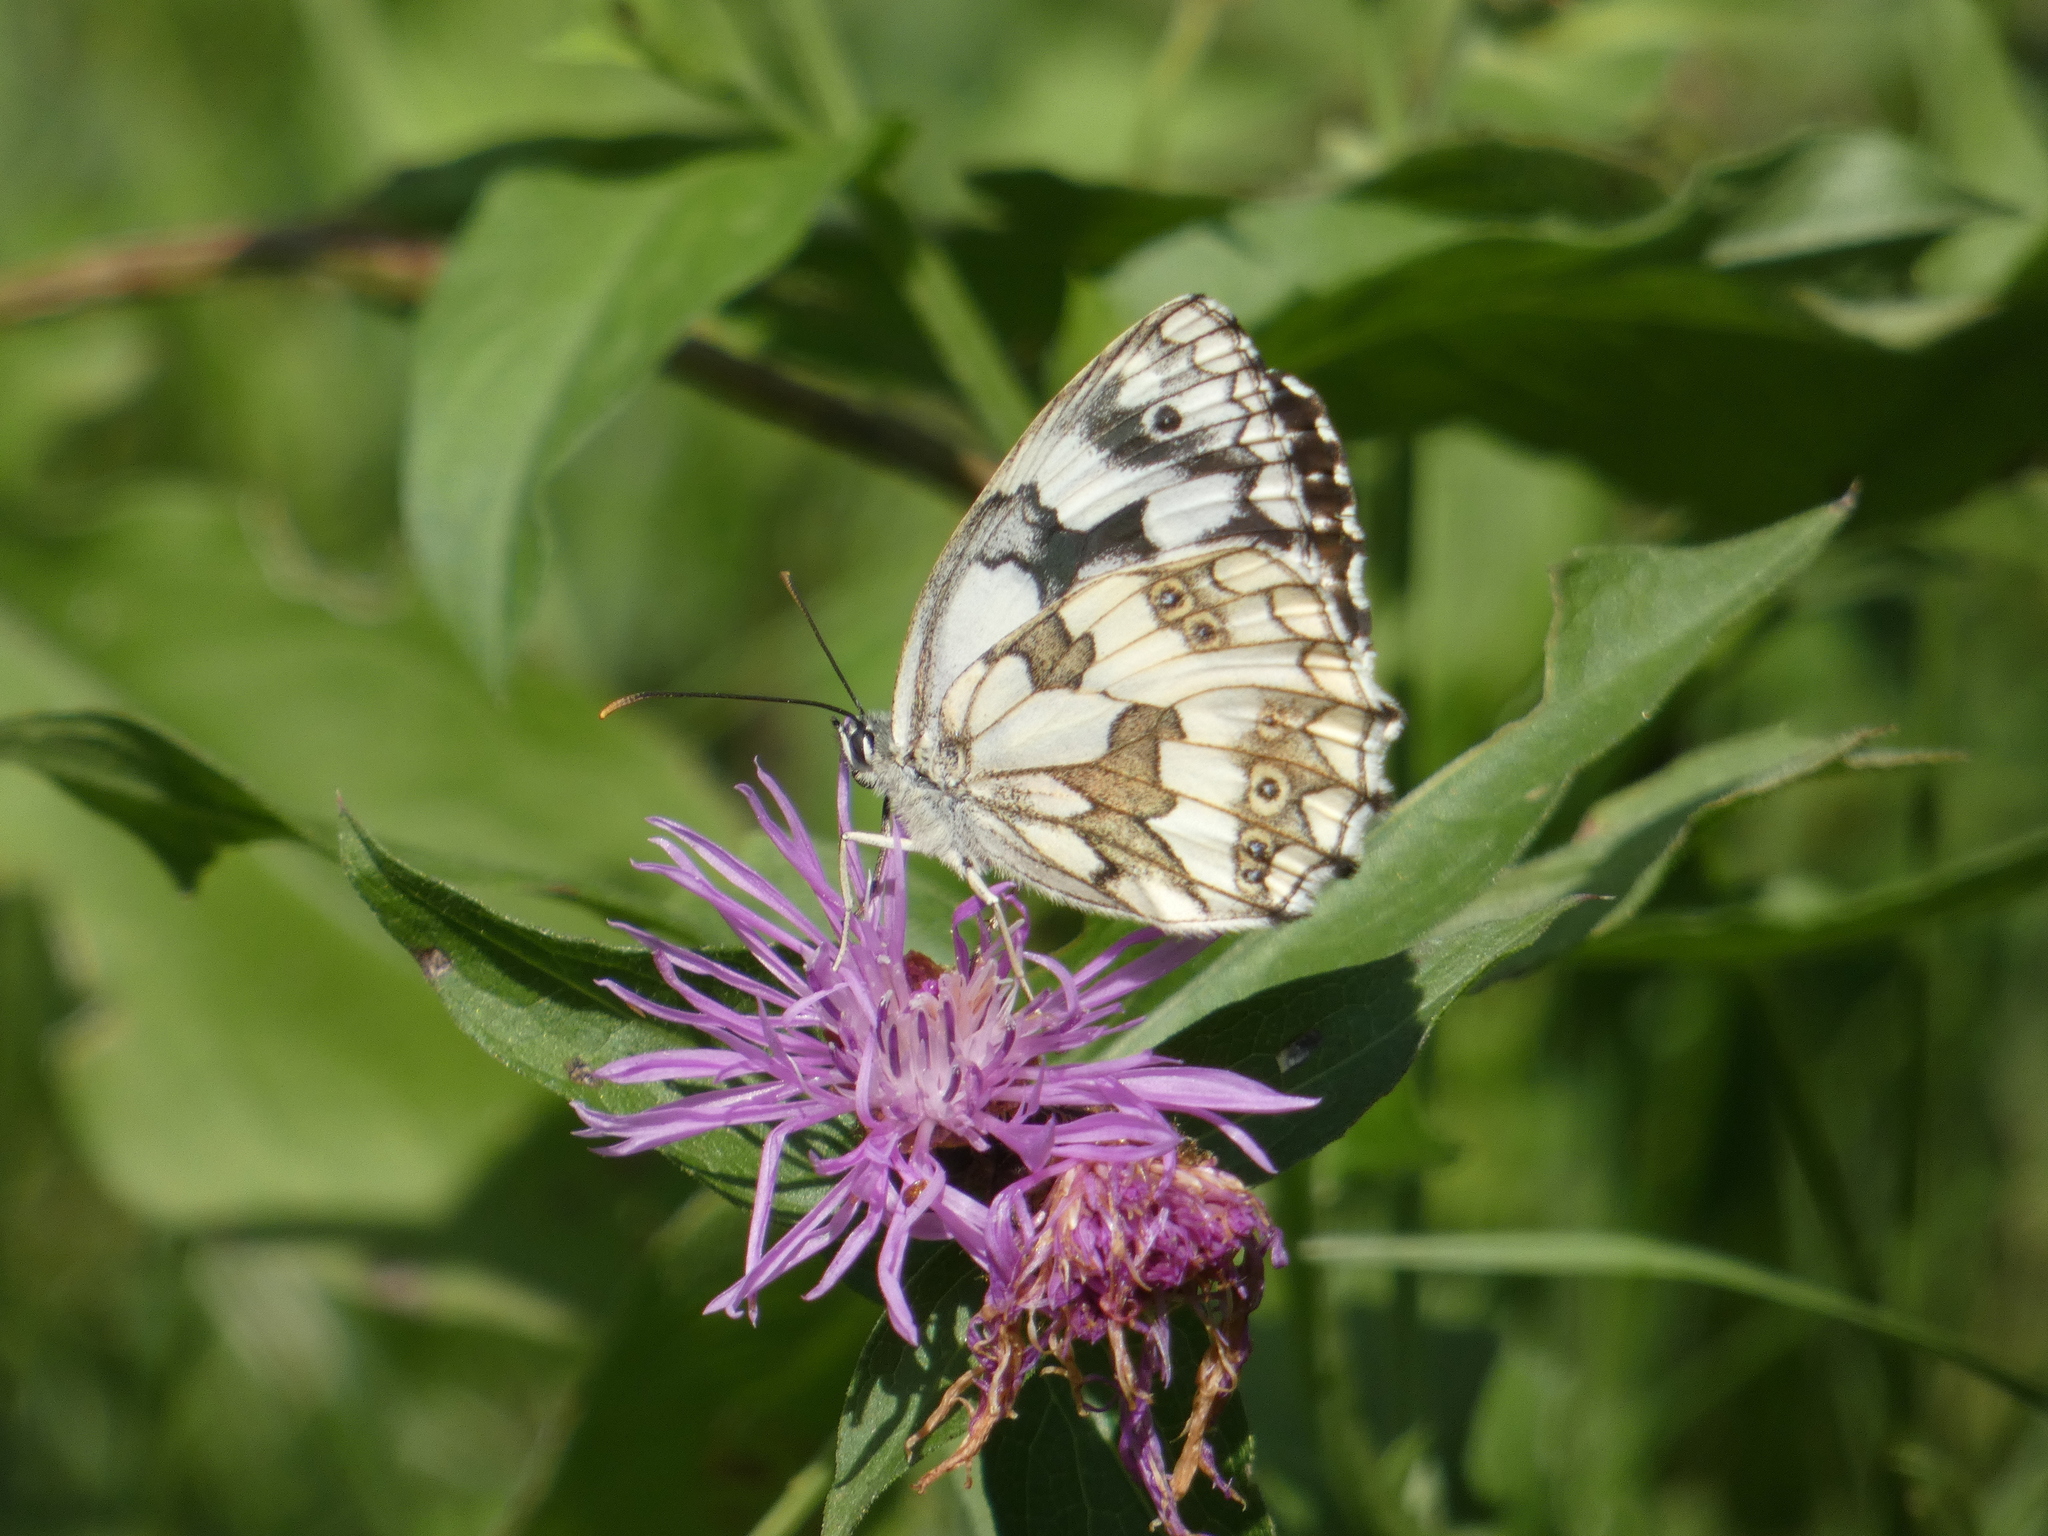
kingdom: Animalia
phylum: Arthropoda
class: Insecta
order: Lepidoptera
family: Nymphalidae
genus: Melanargia
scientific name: Melanargia galathea
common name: Marbled white
